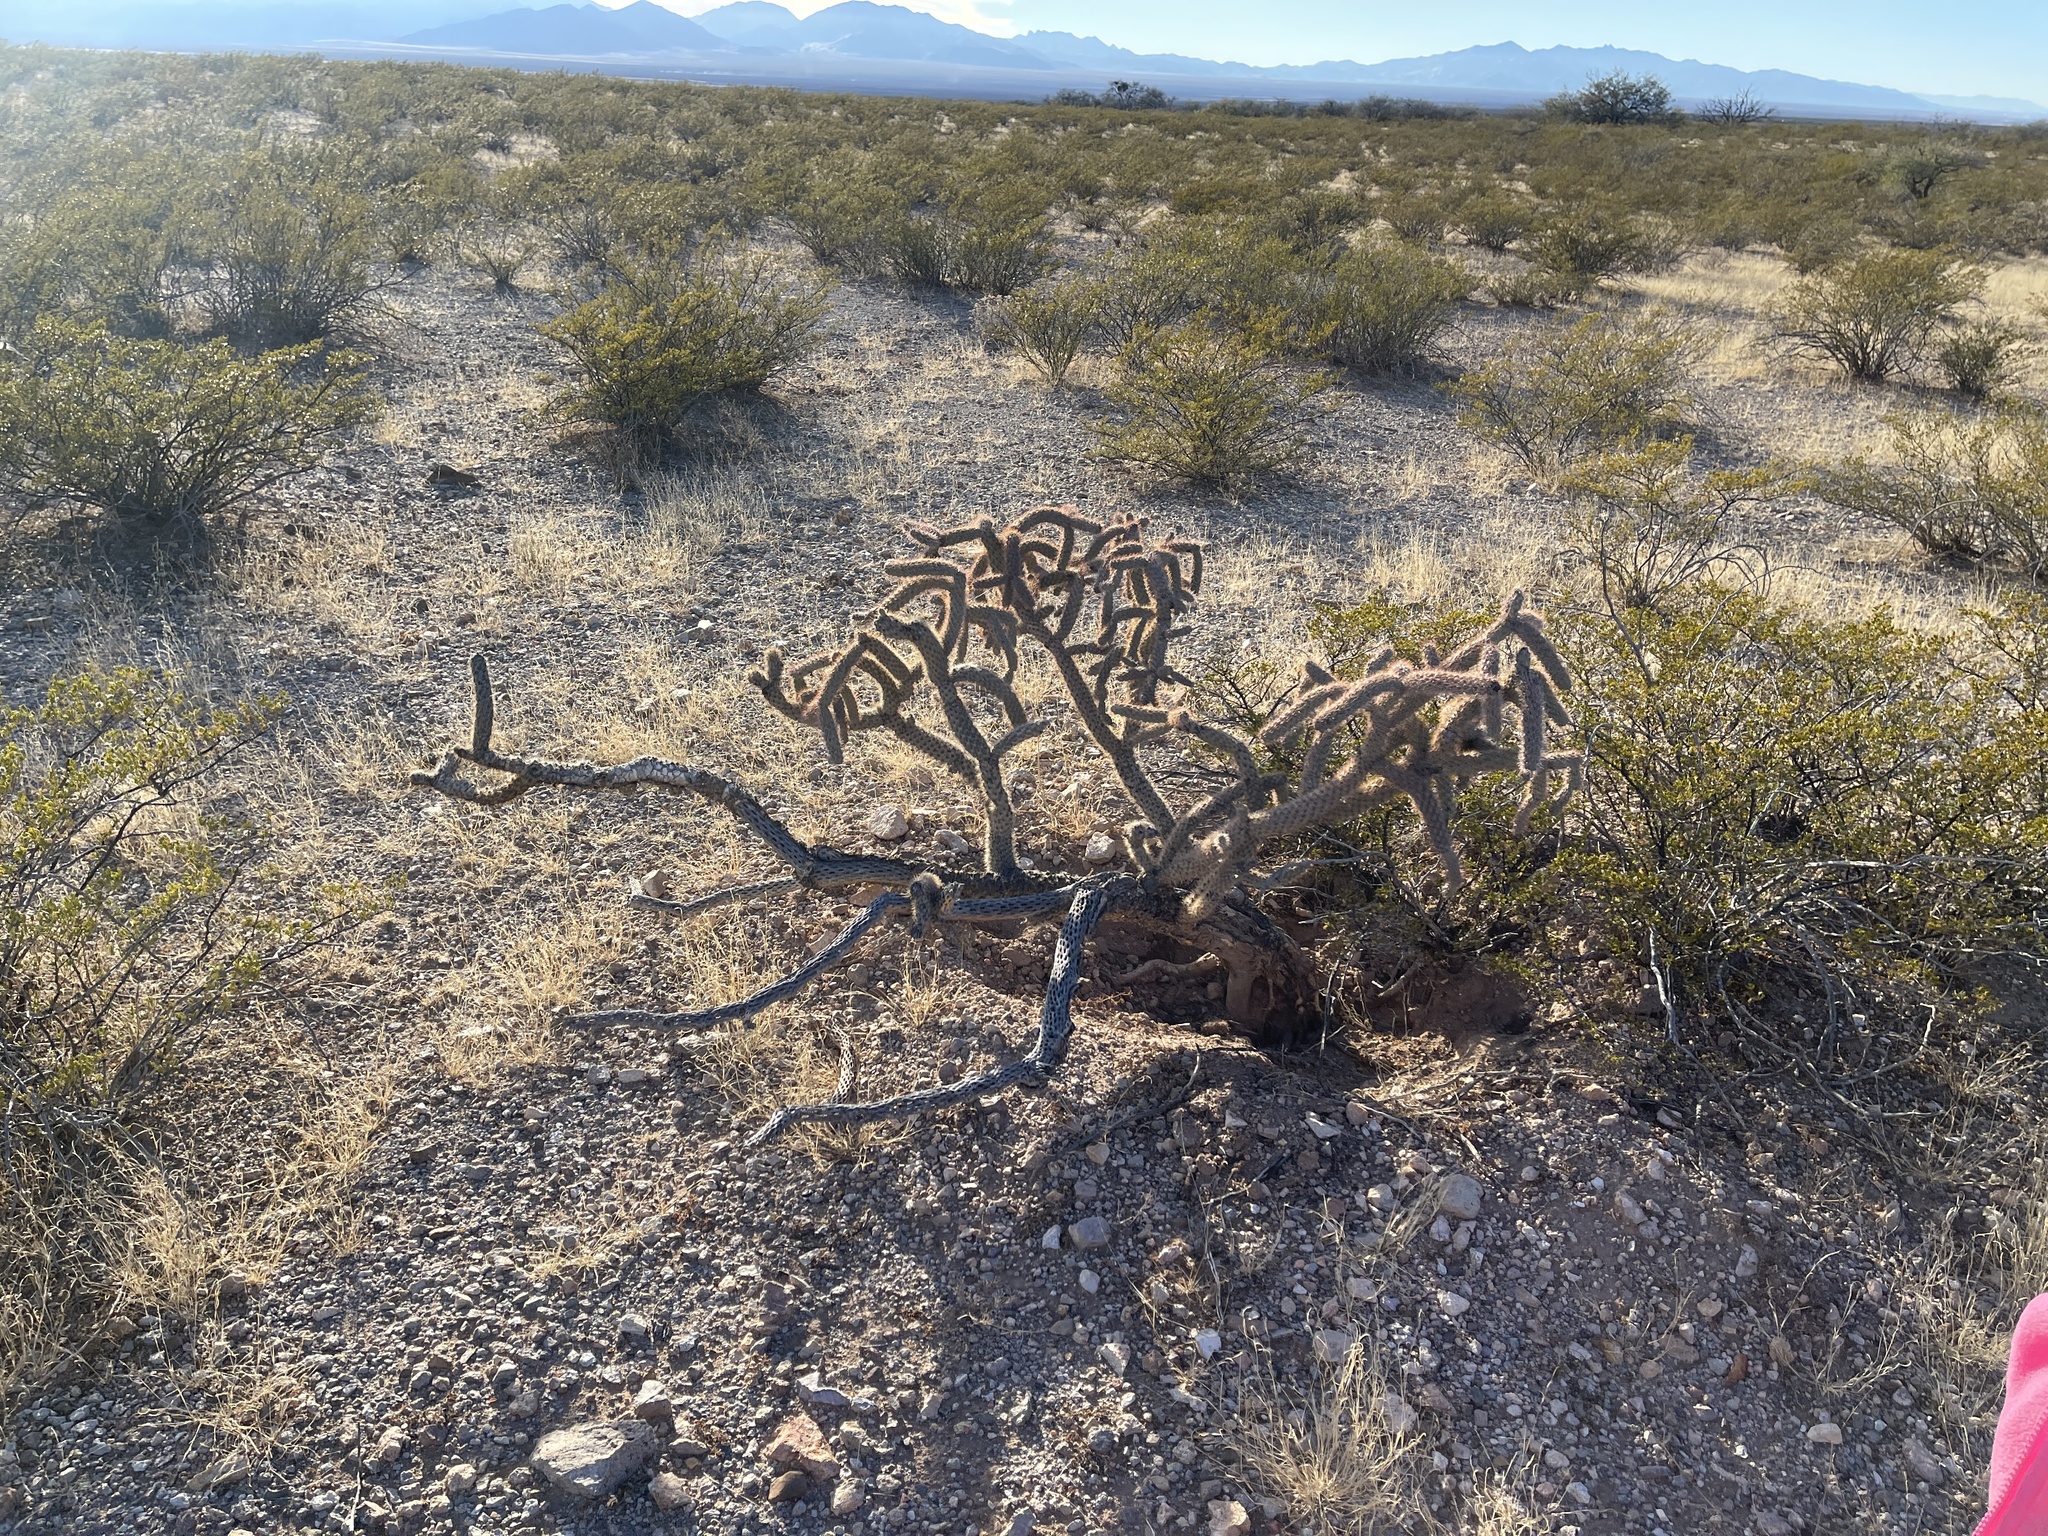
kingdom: Plantae
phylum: Tracheophyta
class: Magnoliopsida
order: Caryophyllales
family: Cactaceae
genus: Cylindropuntia
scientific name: Cylindropuntia imbricata
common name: Candelabrum cactus
